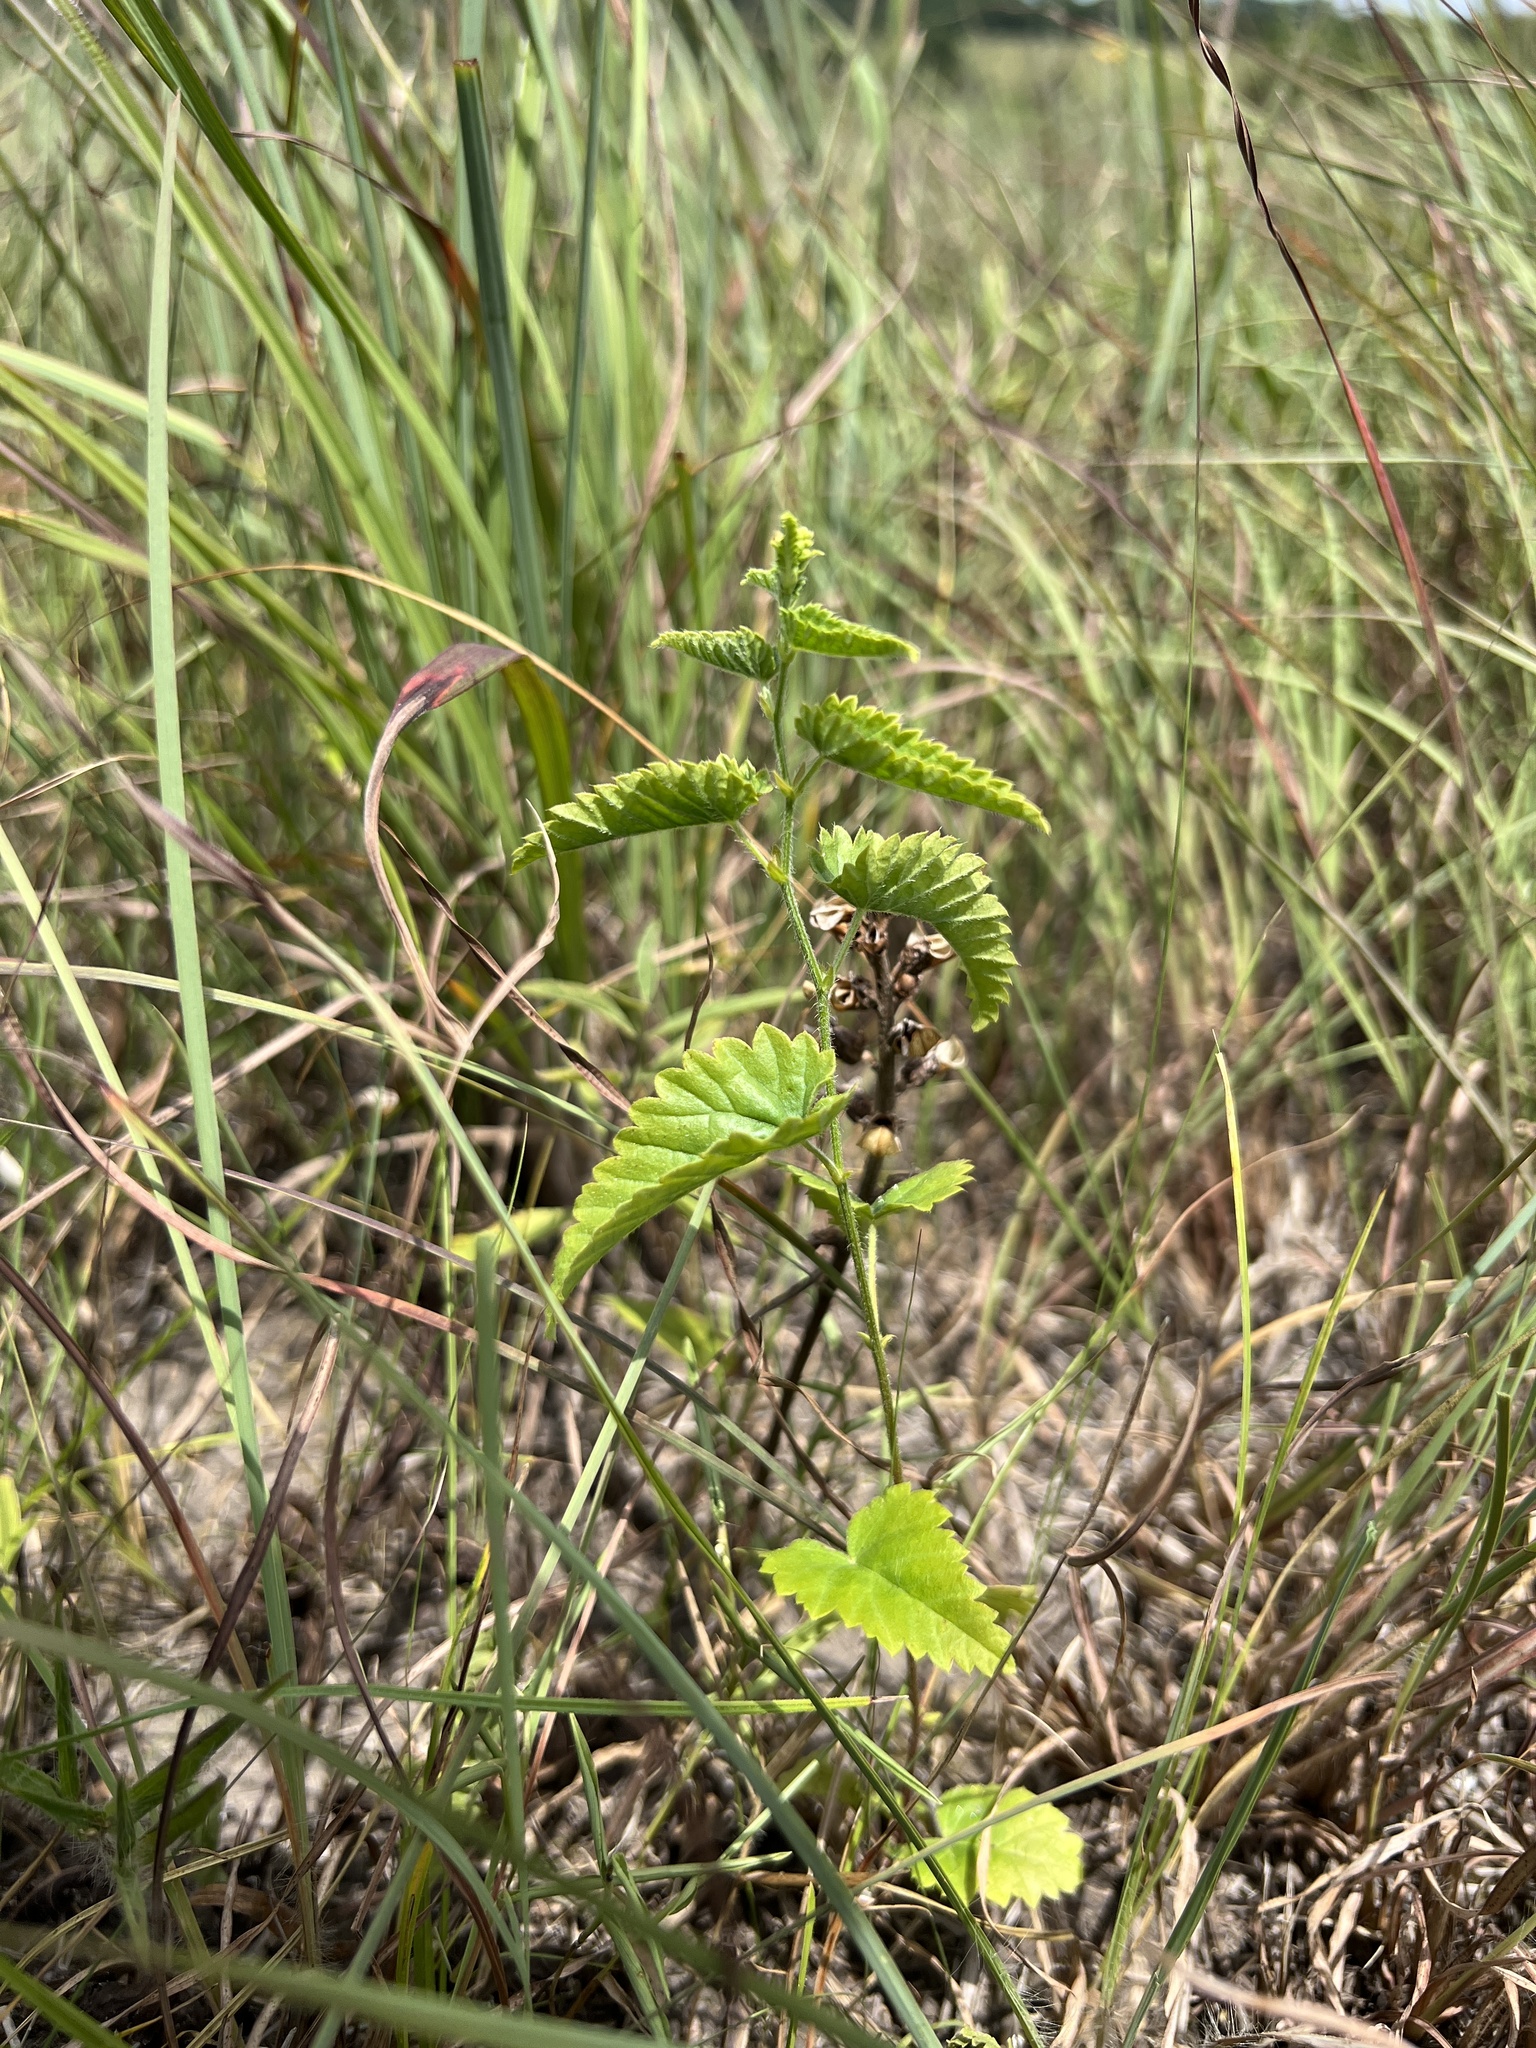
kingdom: Plantae
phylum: Tracheophyta
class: Magnoliopsida
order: Malpighiales
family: Euphorbiaceae
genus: Tragia
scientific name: Tragia betonicifolia
